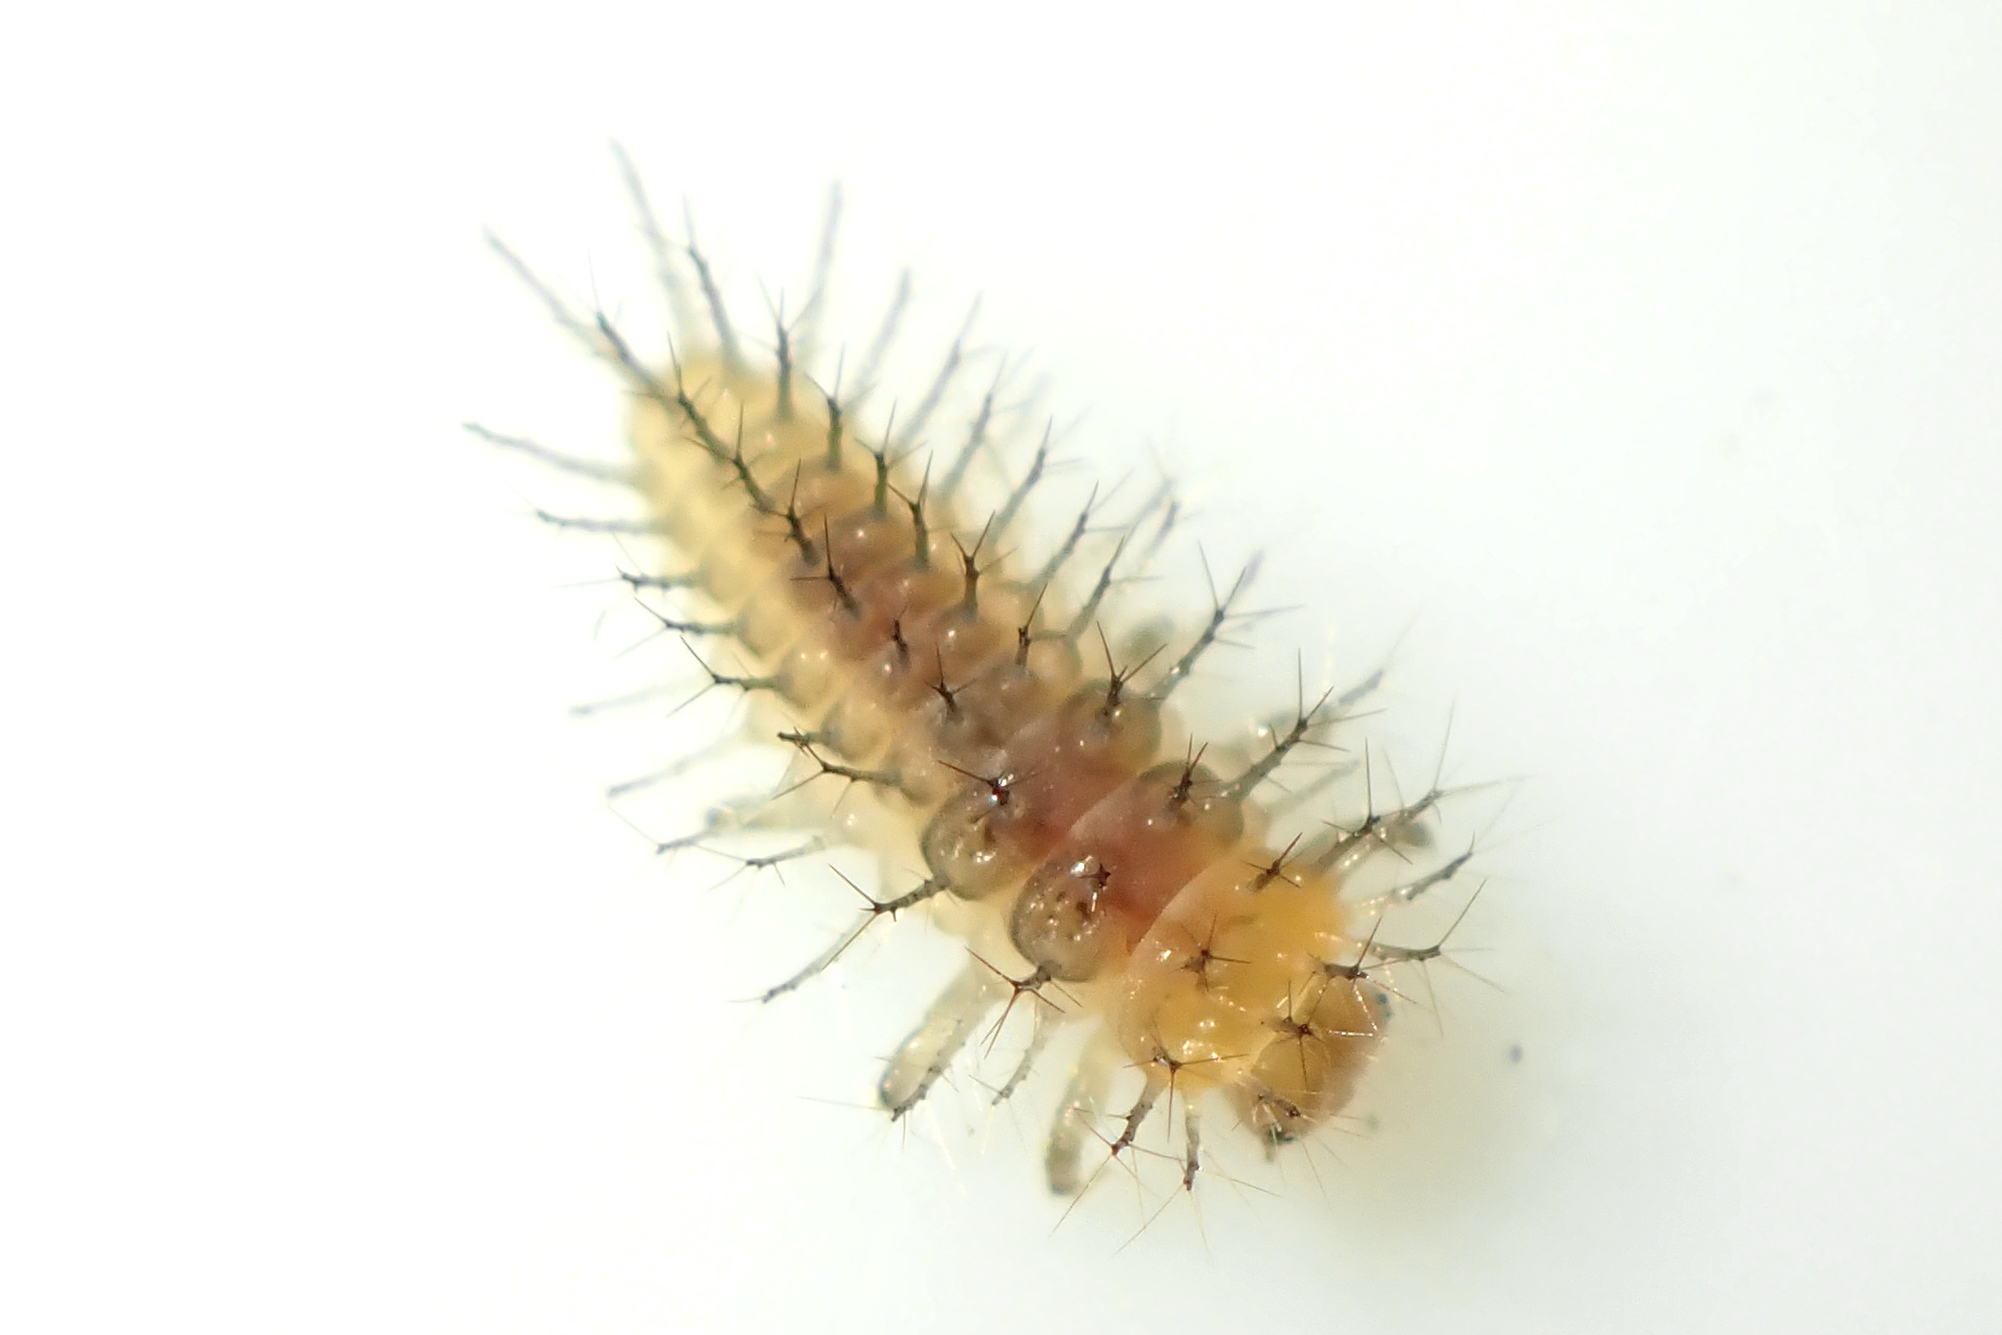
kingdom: Animalia
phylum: Arthropoda
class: Insecta
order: Coleoptera
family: Coccinellidae
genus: Halmus
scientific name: Halmus chalybeus
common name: Steel blue ladybird beetle
